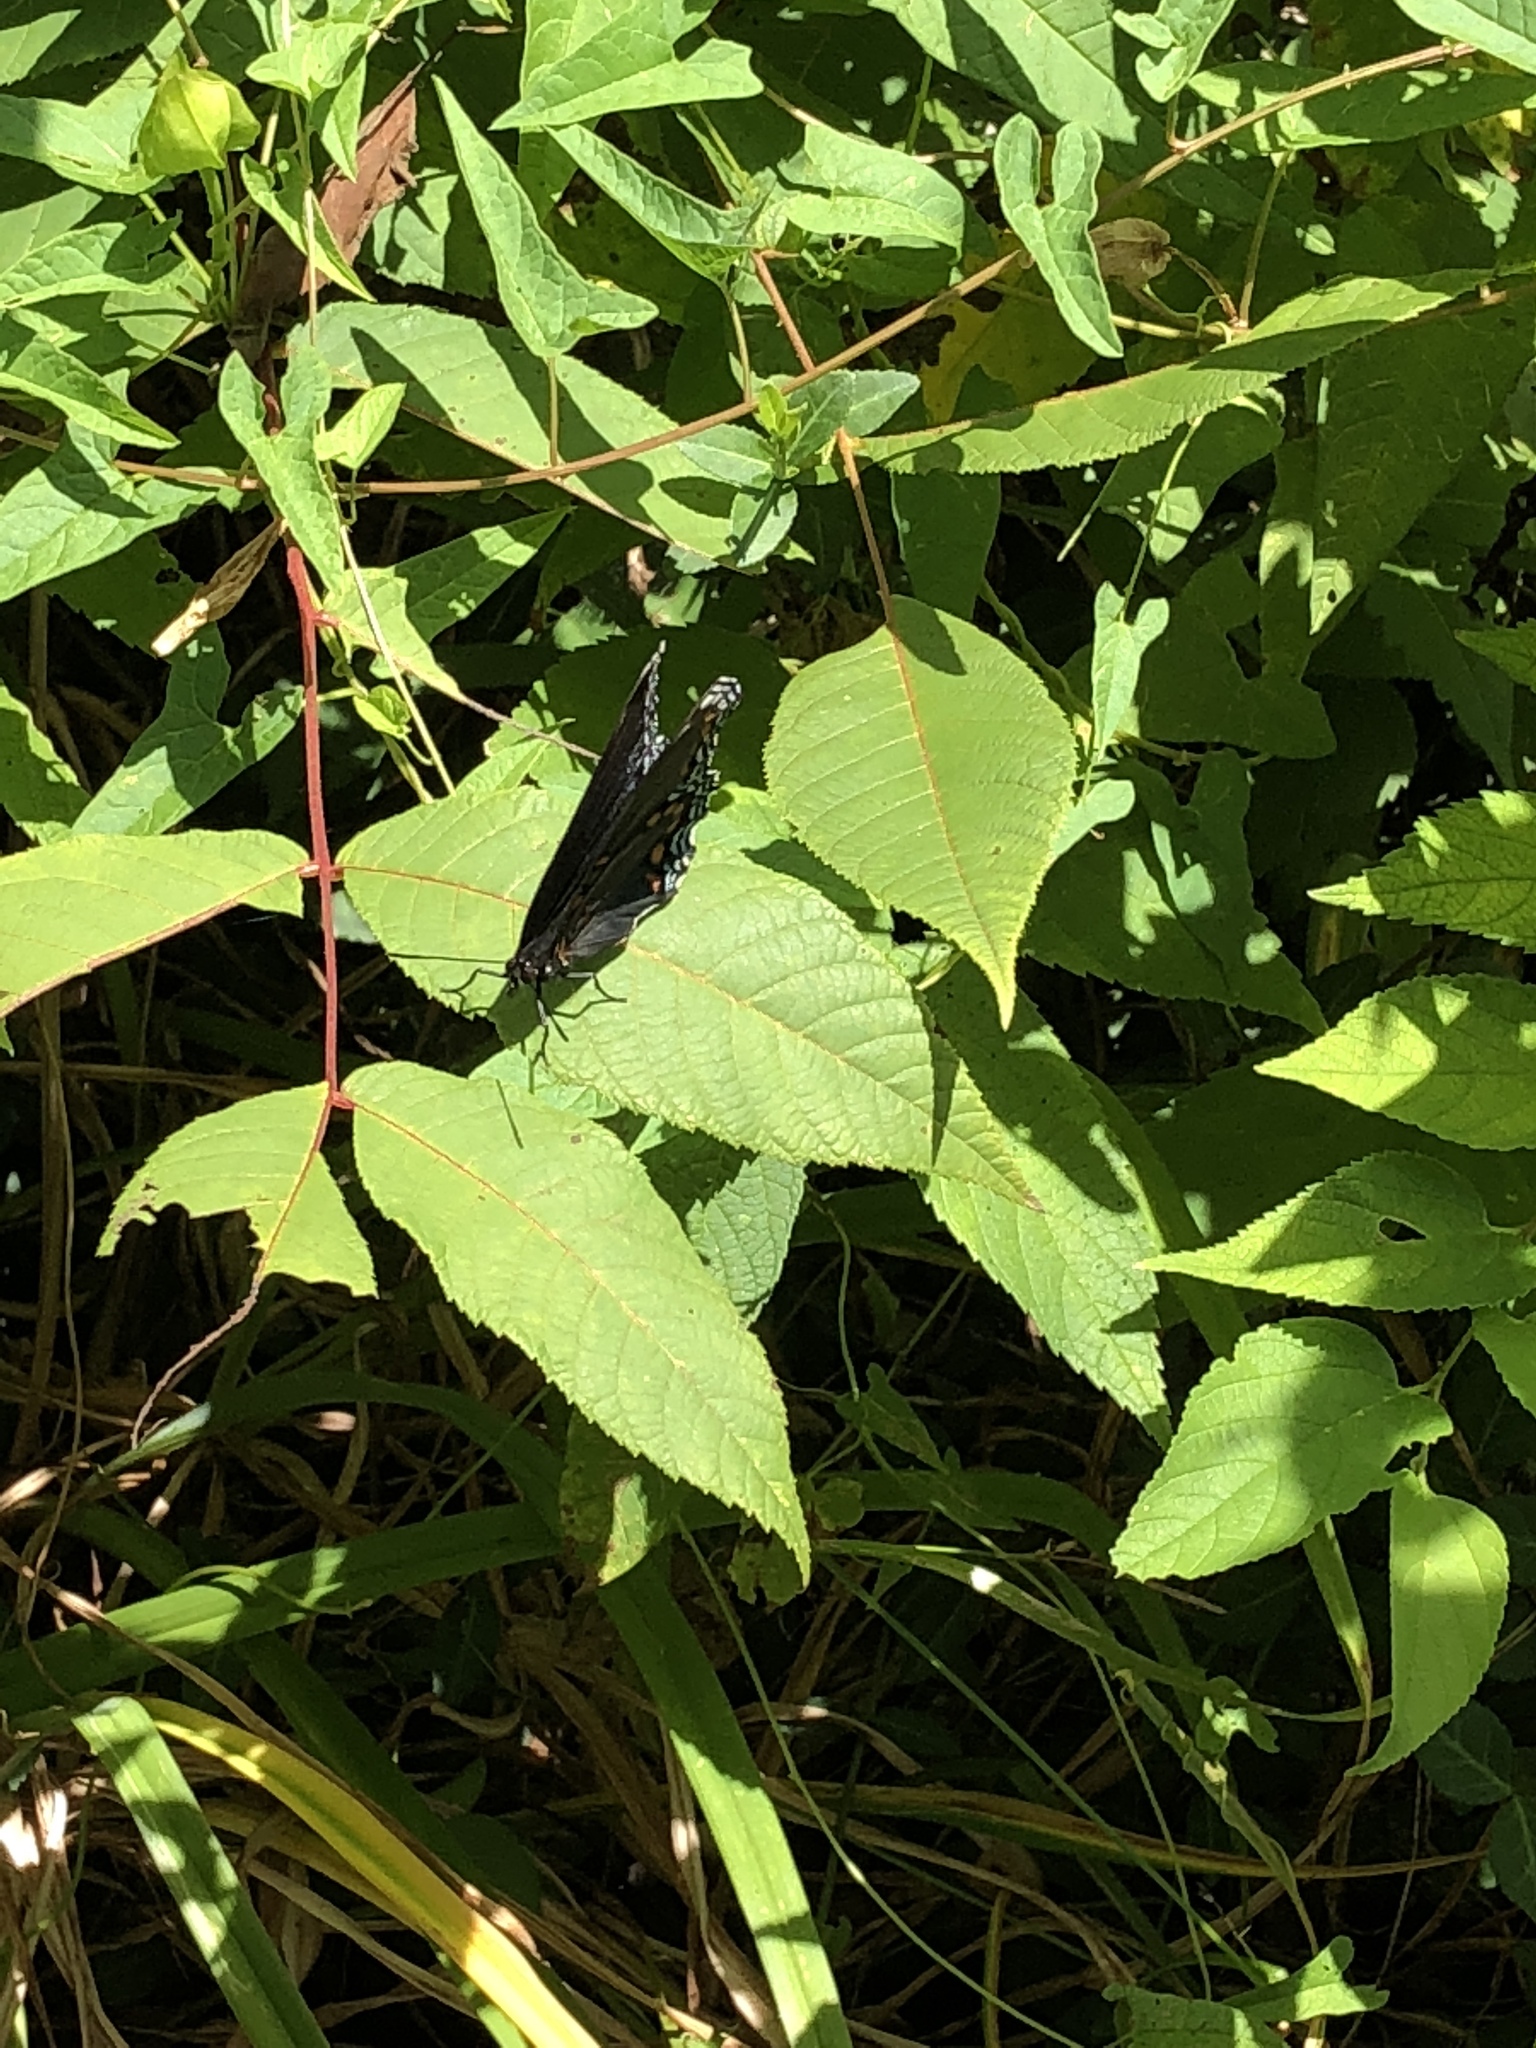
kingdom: Animalia
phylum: Arthropoda
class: Insecta
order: Lepidoptera
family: Nymphalidae
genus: Limenitis
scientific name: Limenitis arthemis
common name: Red-spotted admiral
